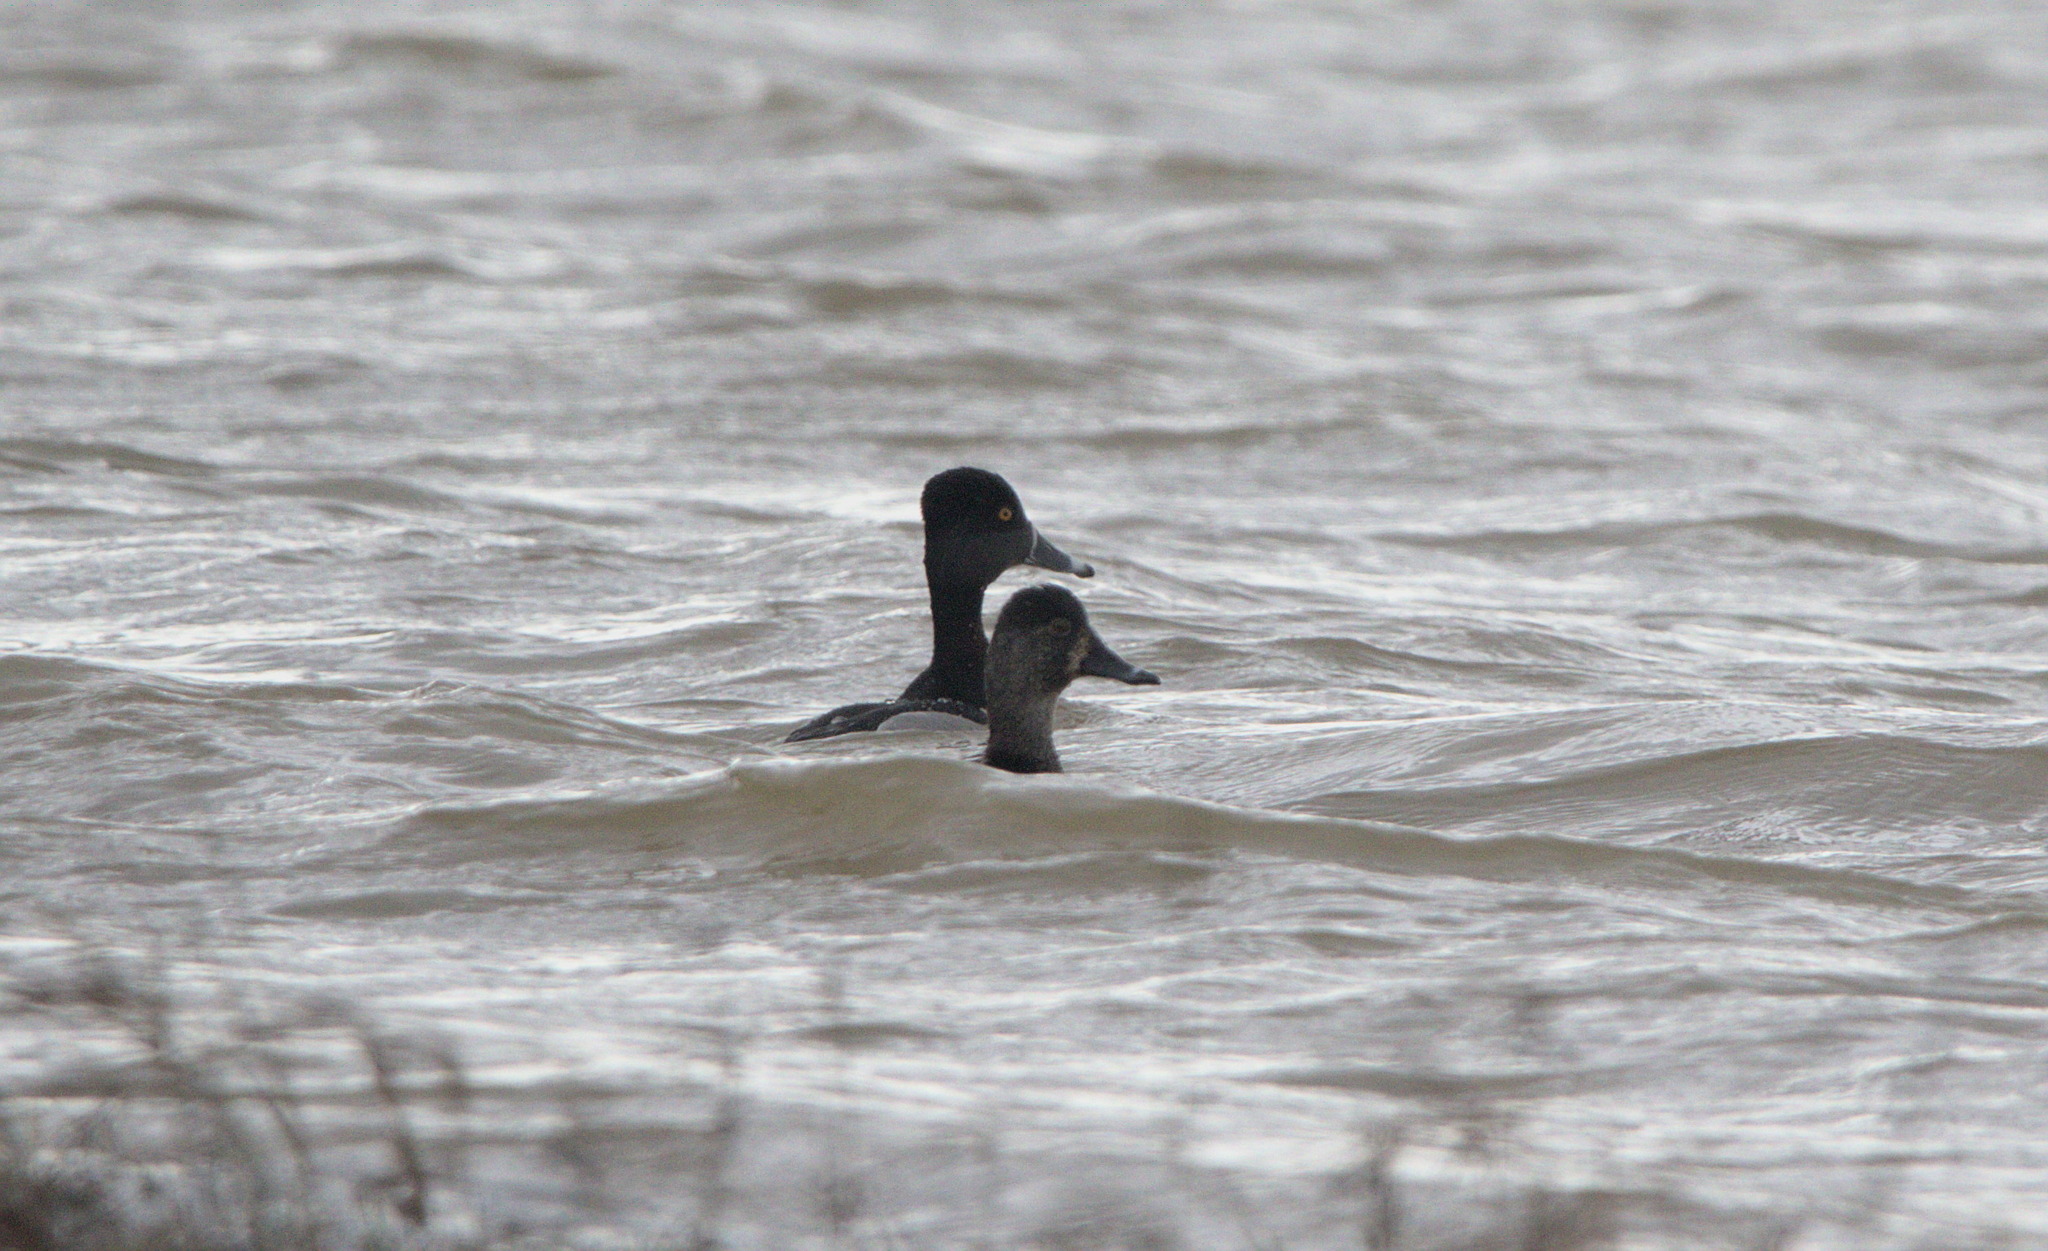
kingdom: Animalia
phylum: Chordata
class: Aves
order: Anseriformes
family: Anatidae
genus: Aythya
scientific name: Aythya collaris
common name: Ring-necked duck
